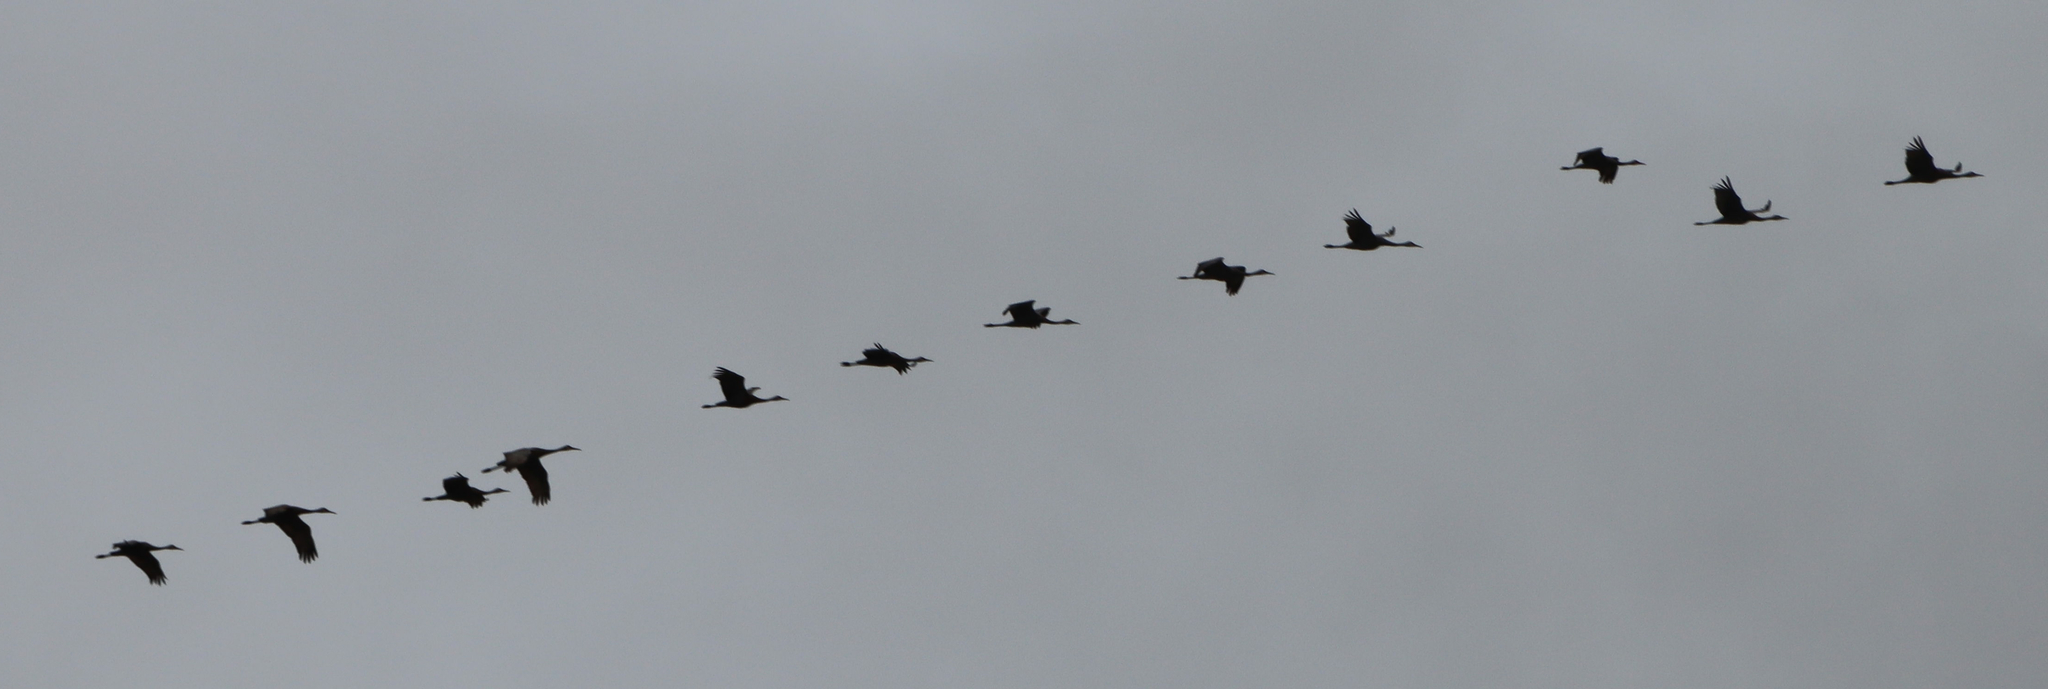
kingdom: Animalia
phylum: Chordata
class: Aves
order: Gruiformes
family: Gruidae
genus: Grus
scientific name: Grus canadensis
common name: Sandhill crane
